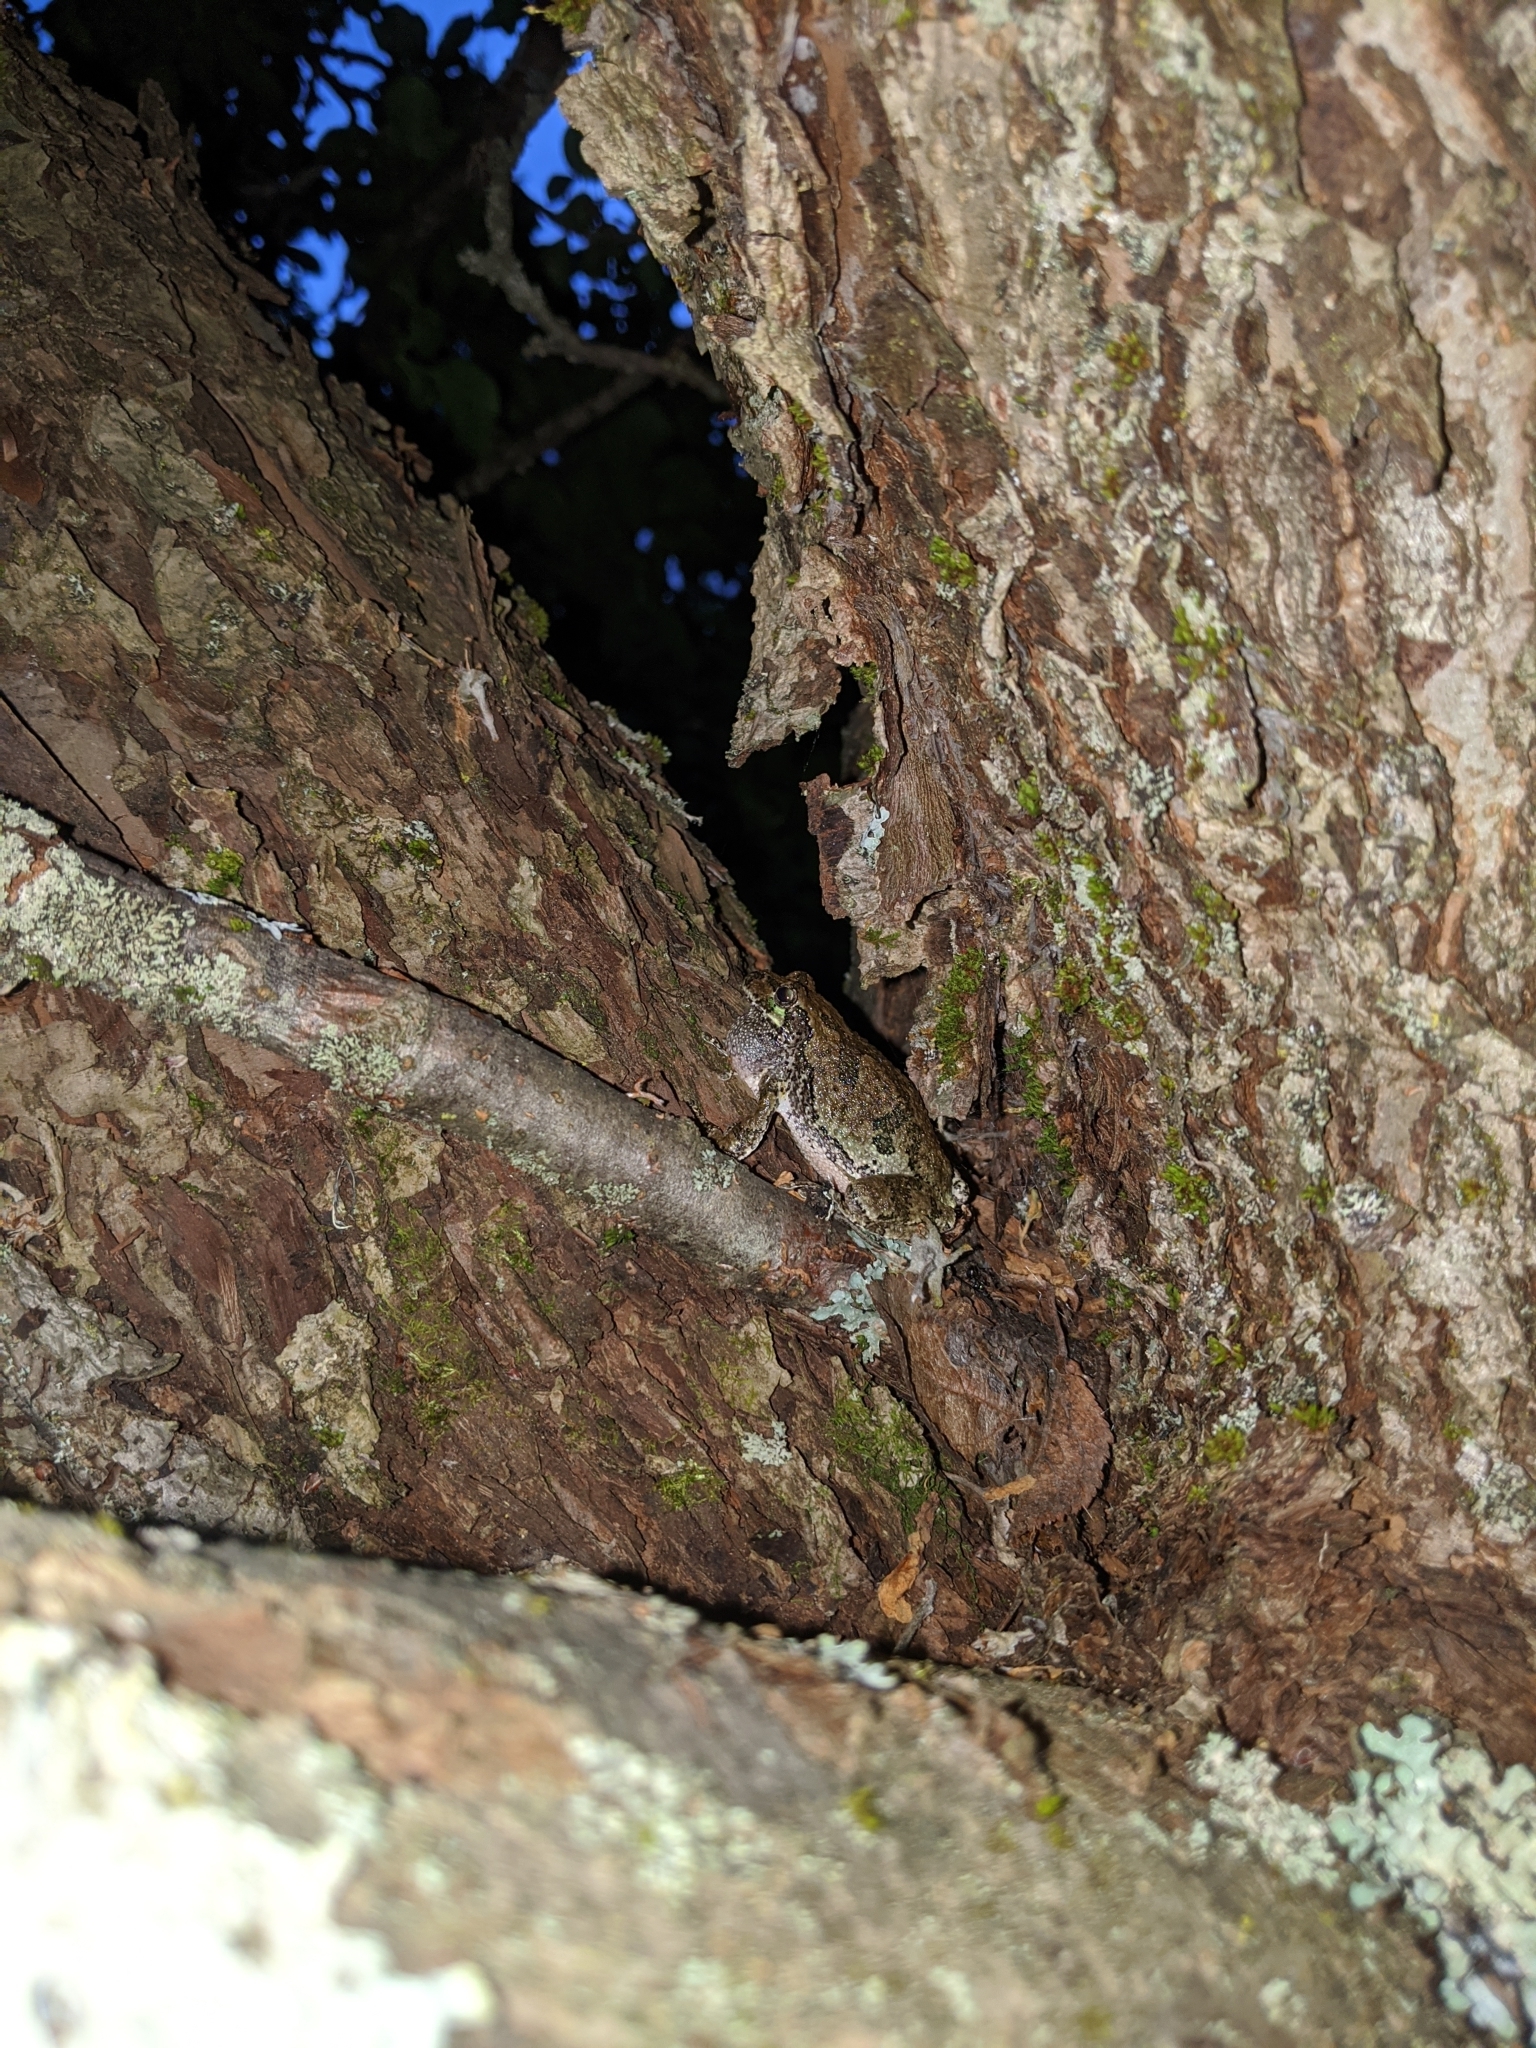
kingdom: Animalia
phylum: Chordata
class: Amphibia
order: Anura
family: Hylidae
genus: Dryophytes
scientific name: Dryophytes versicolor
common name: Gray treefrog
